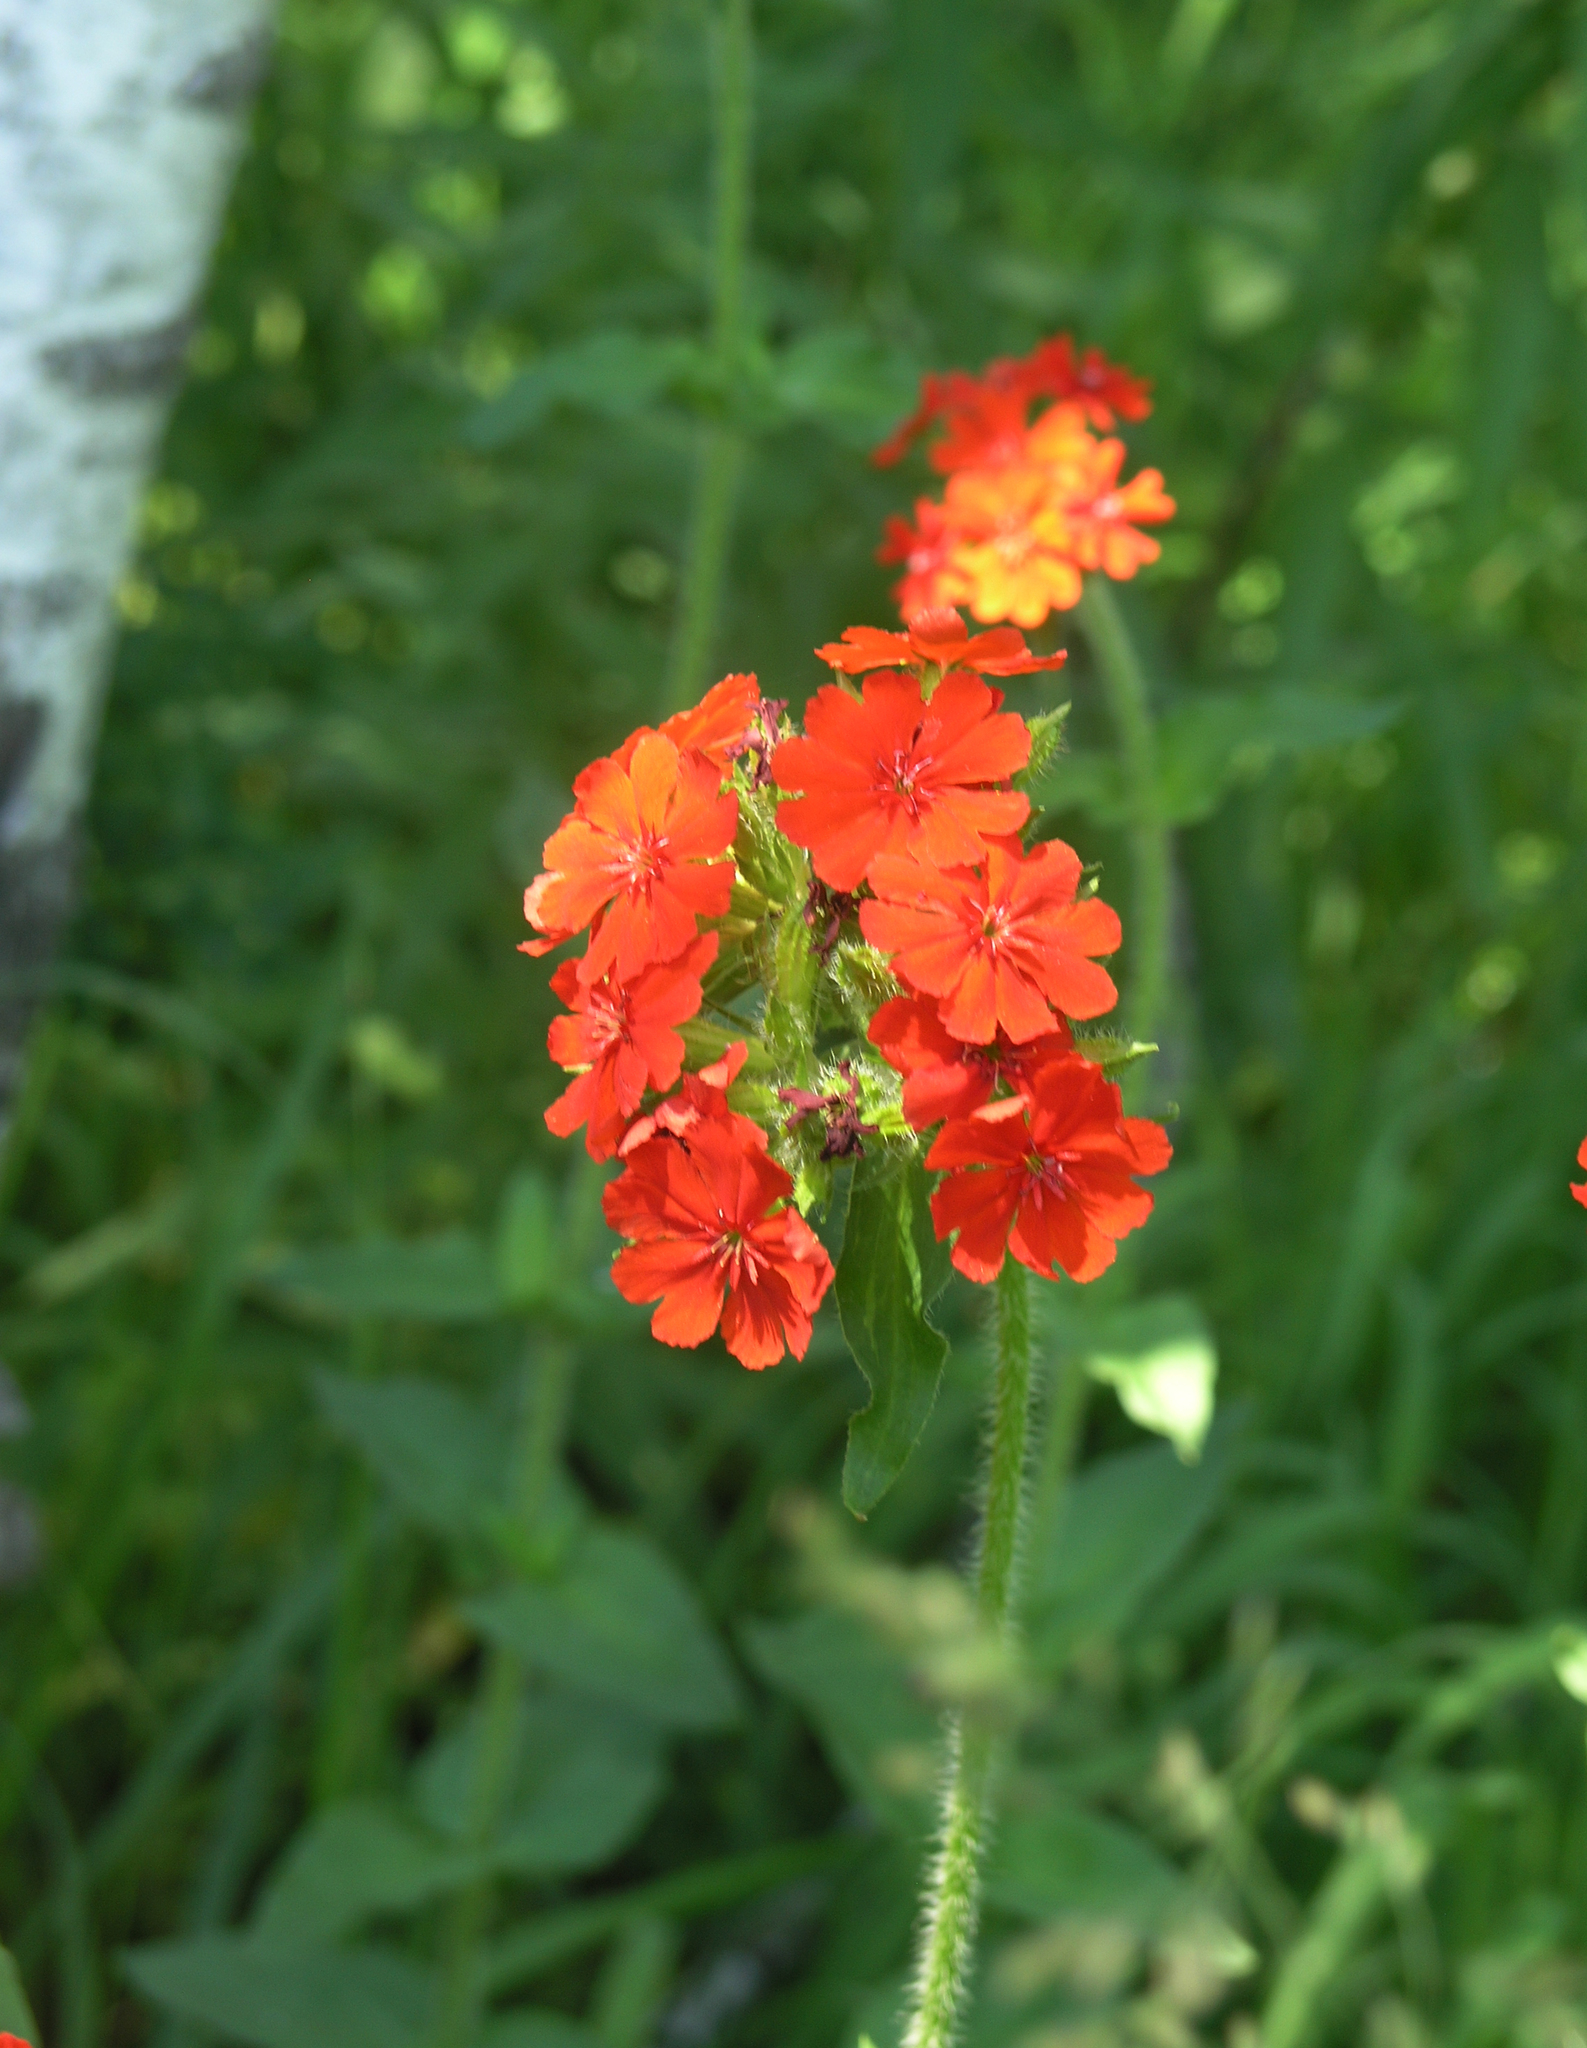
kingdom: Plantae
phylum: Tracheophyta
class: Magnoliopsida
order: Caryophyllales
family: Caryophyllaceae
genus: Silene
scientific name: Silene chalcedonica
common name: Maltese-cross
